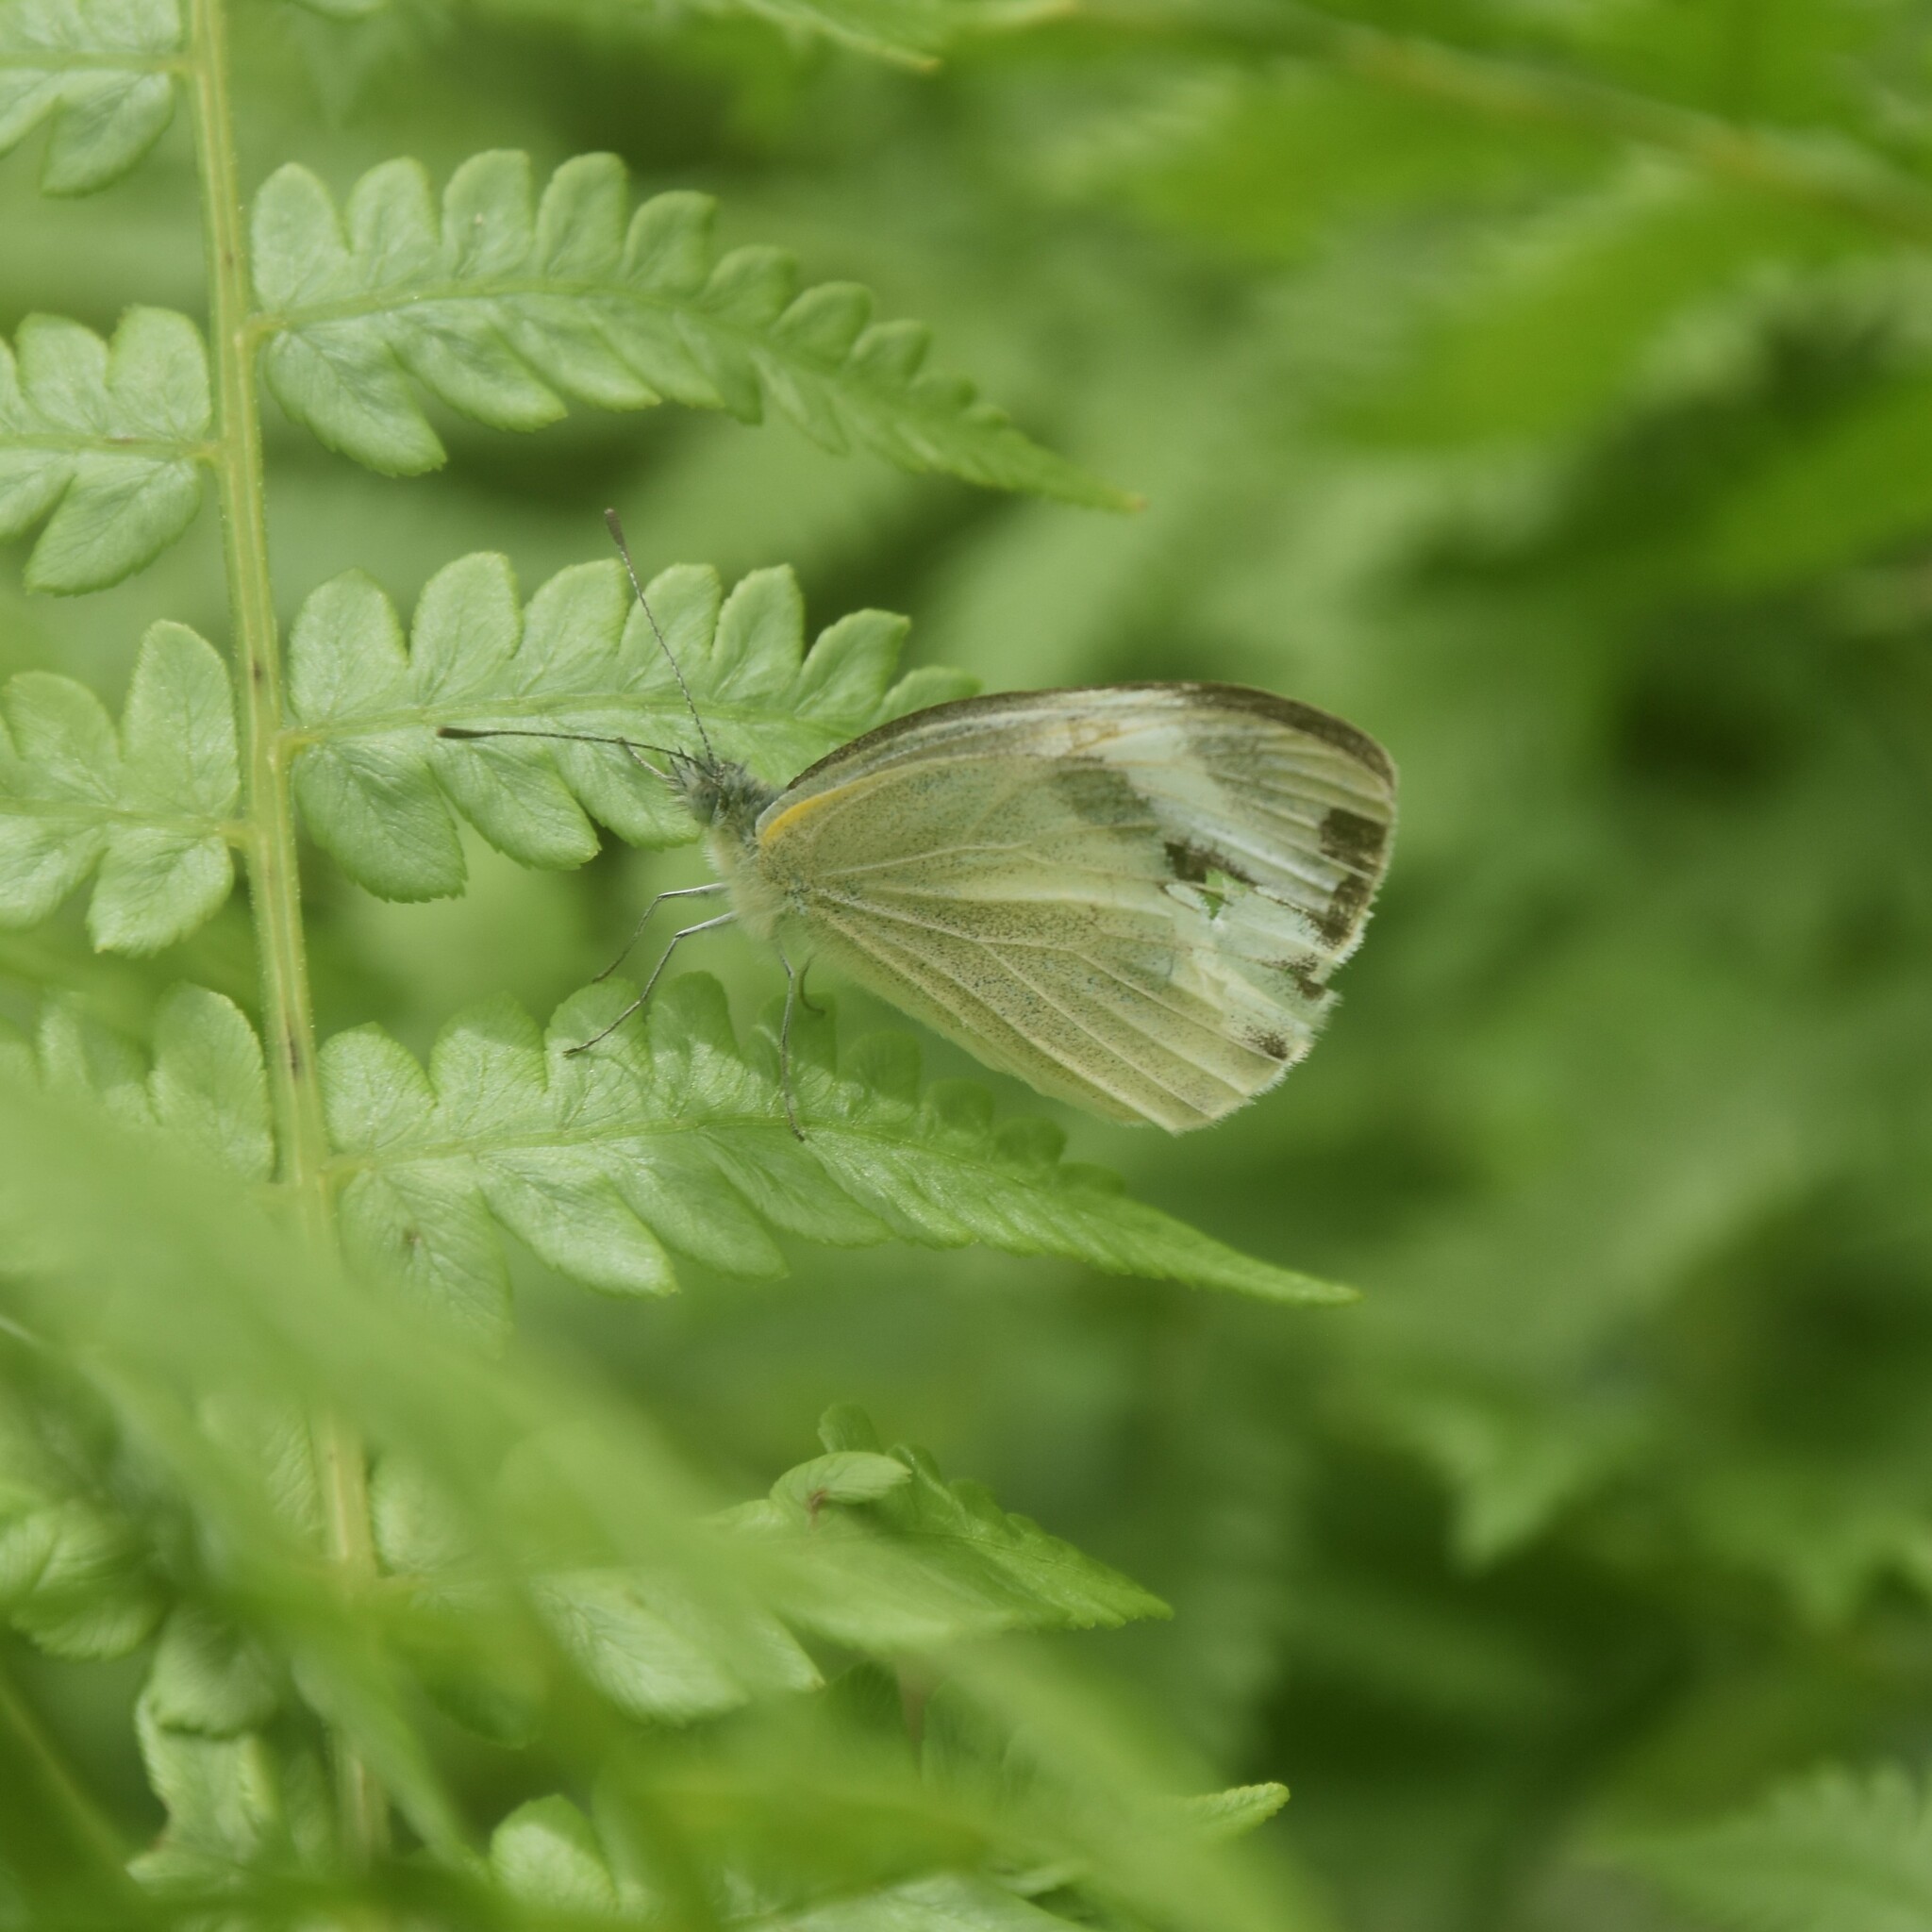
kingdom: Animalia
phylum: Arthropoda
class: Insecta
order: Lepidoptera
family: Pieridae
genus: Pieris
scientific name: Pieris canidia
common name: Indian cabbage white
